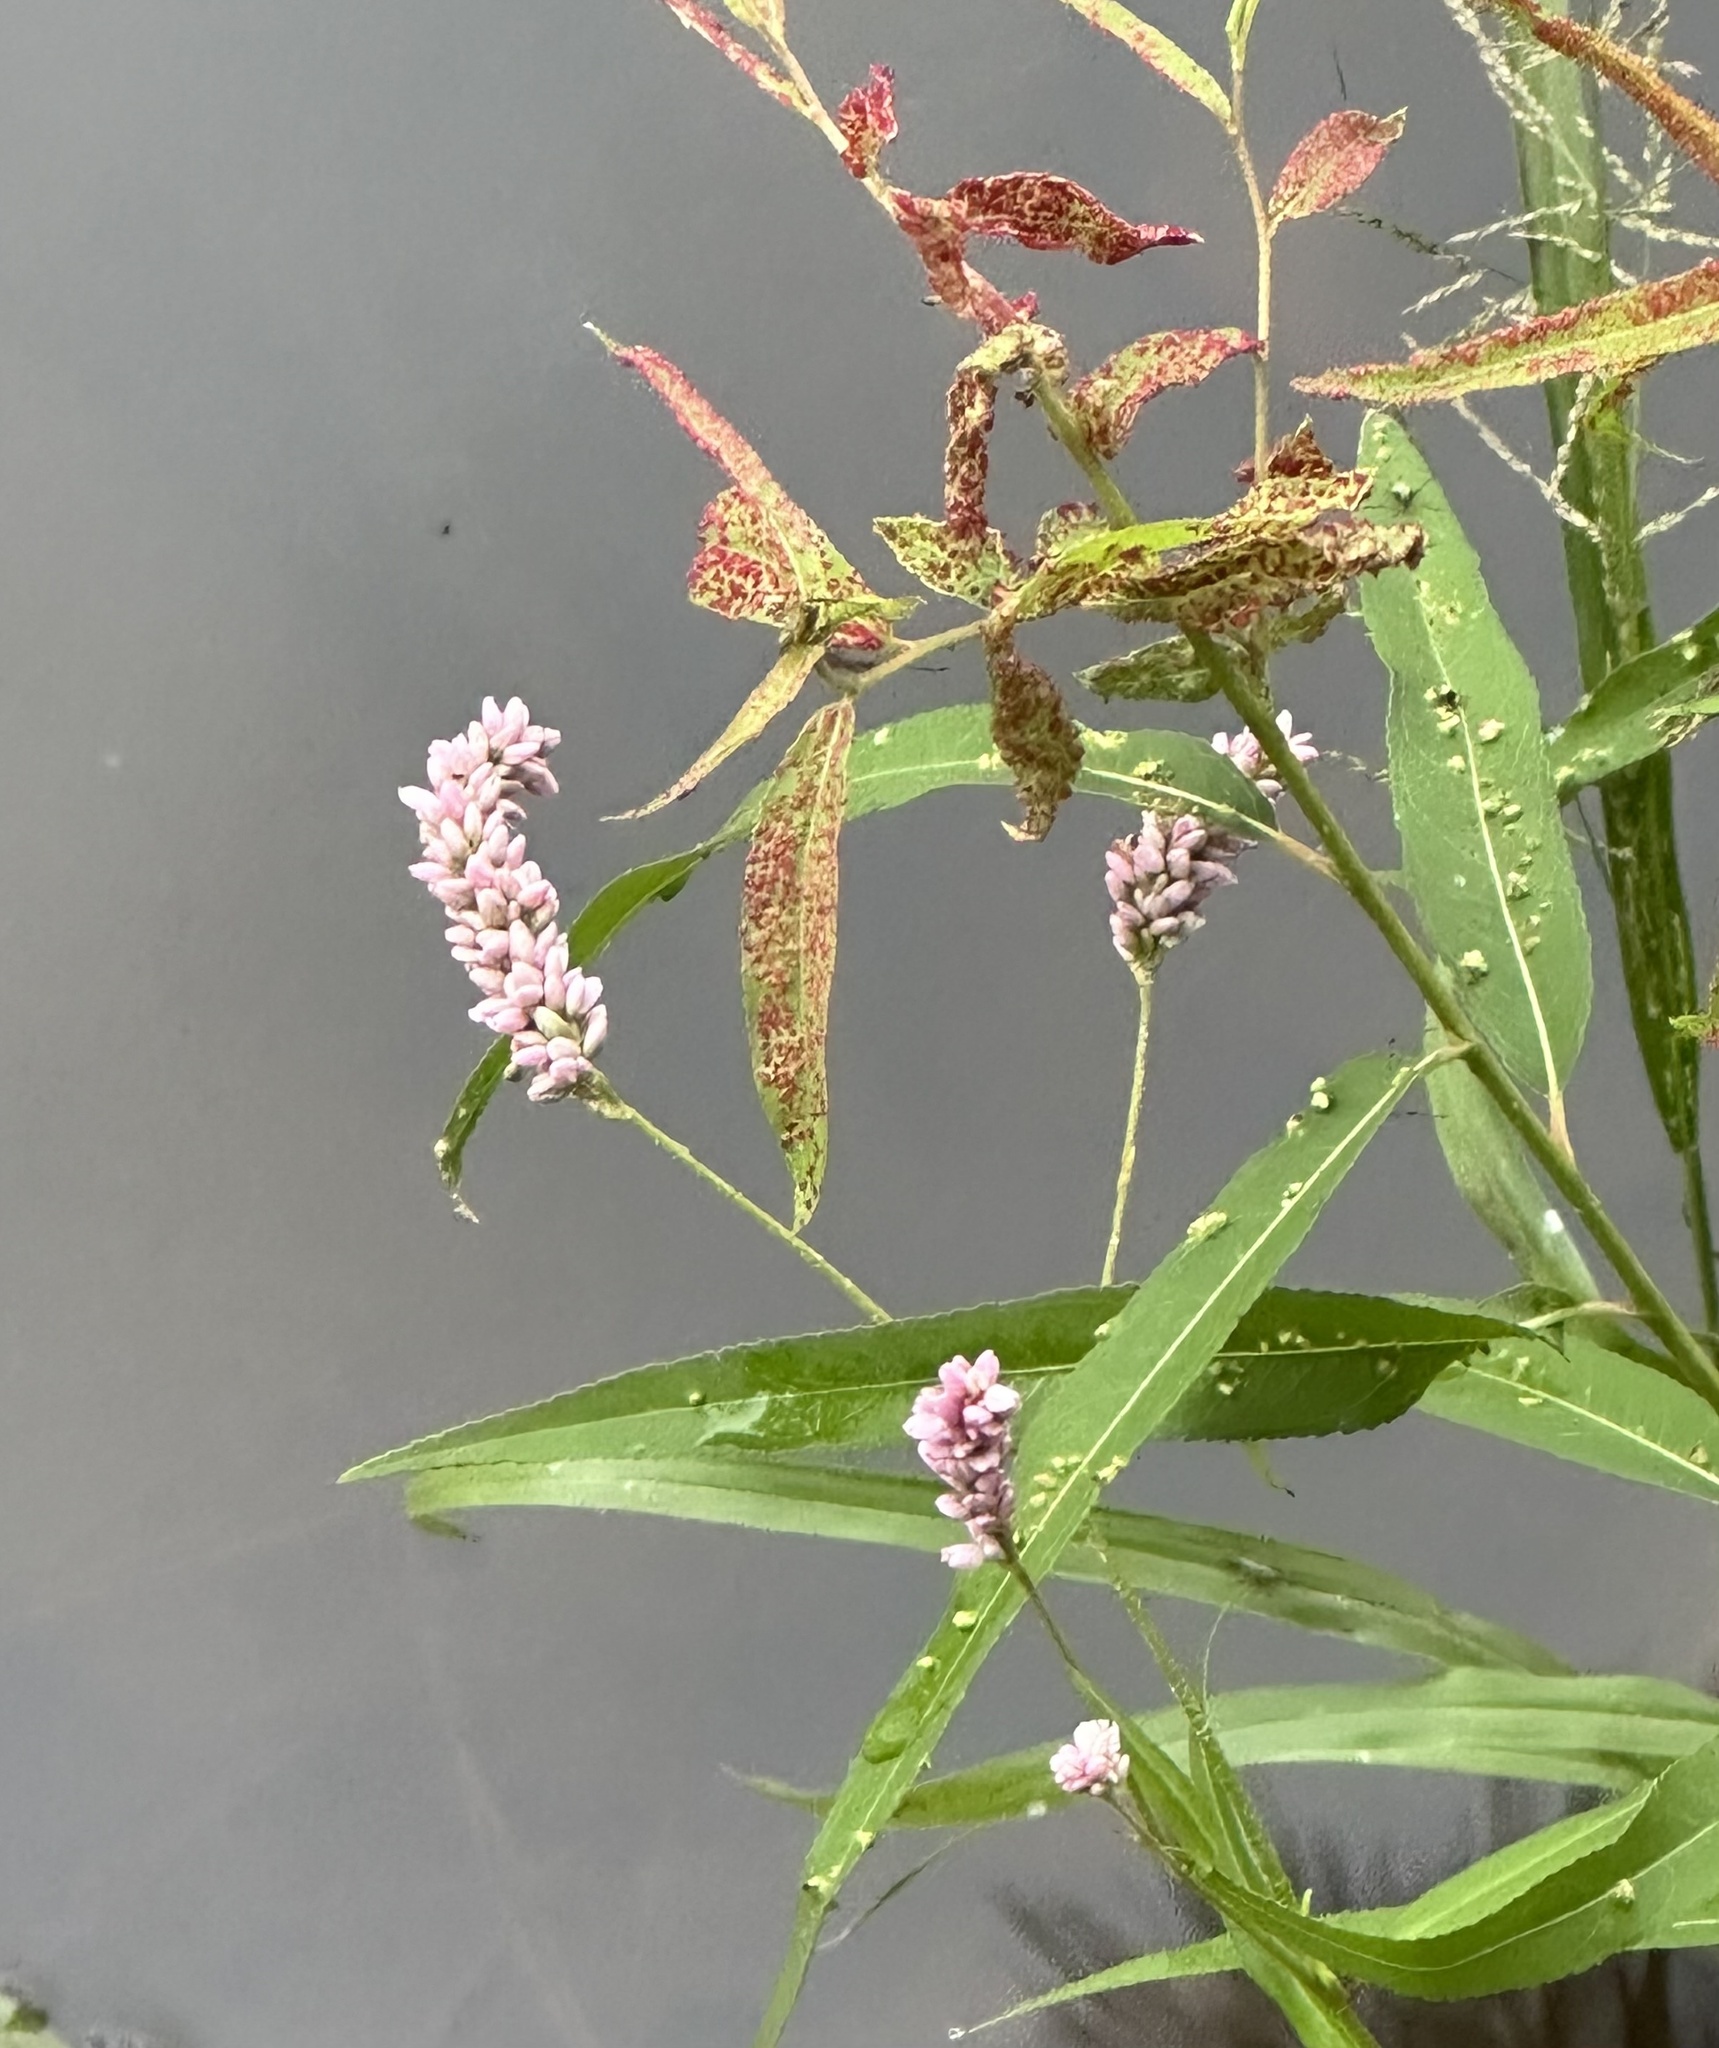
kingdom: Plantae
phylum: Tracheophyta
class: Magnoliopsida
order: Caryophyllales
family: Polygonaceae
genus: Persicaria
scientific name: Persicaria pensylvanica
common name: Pinkweed
